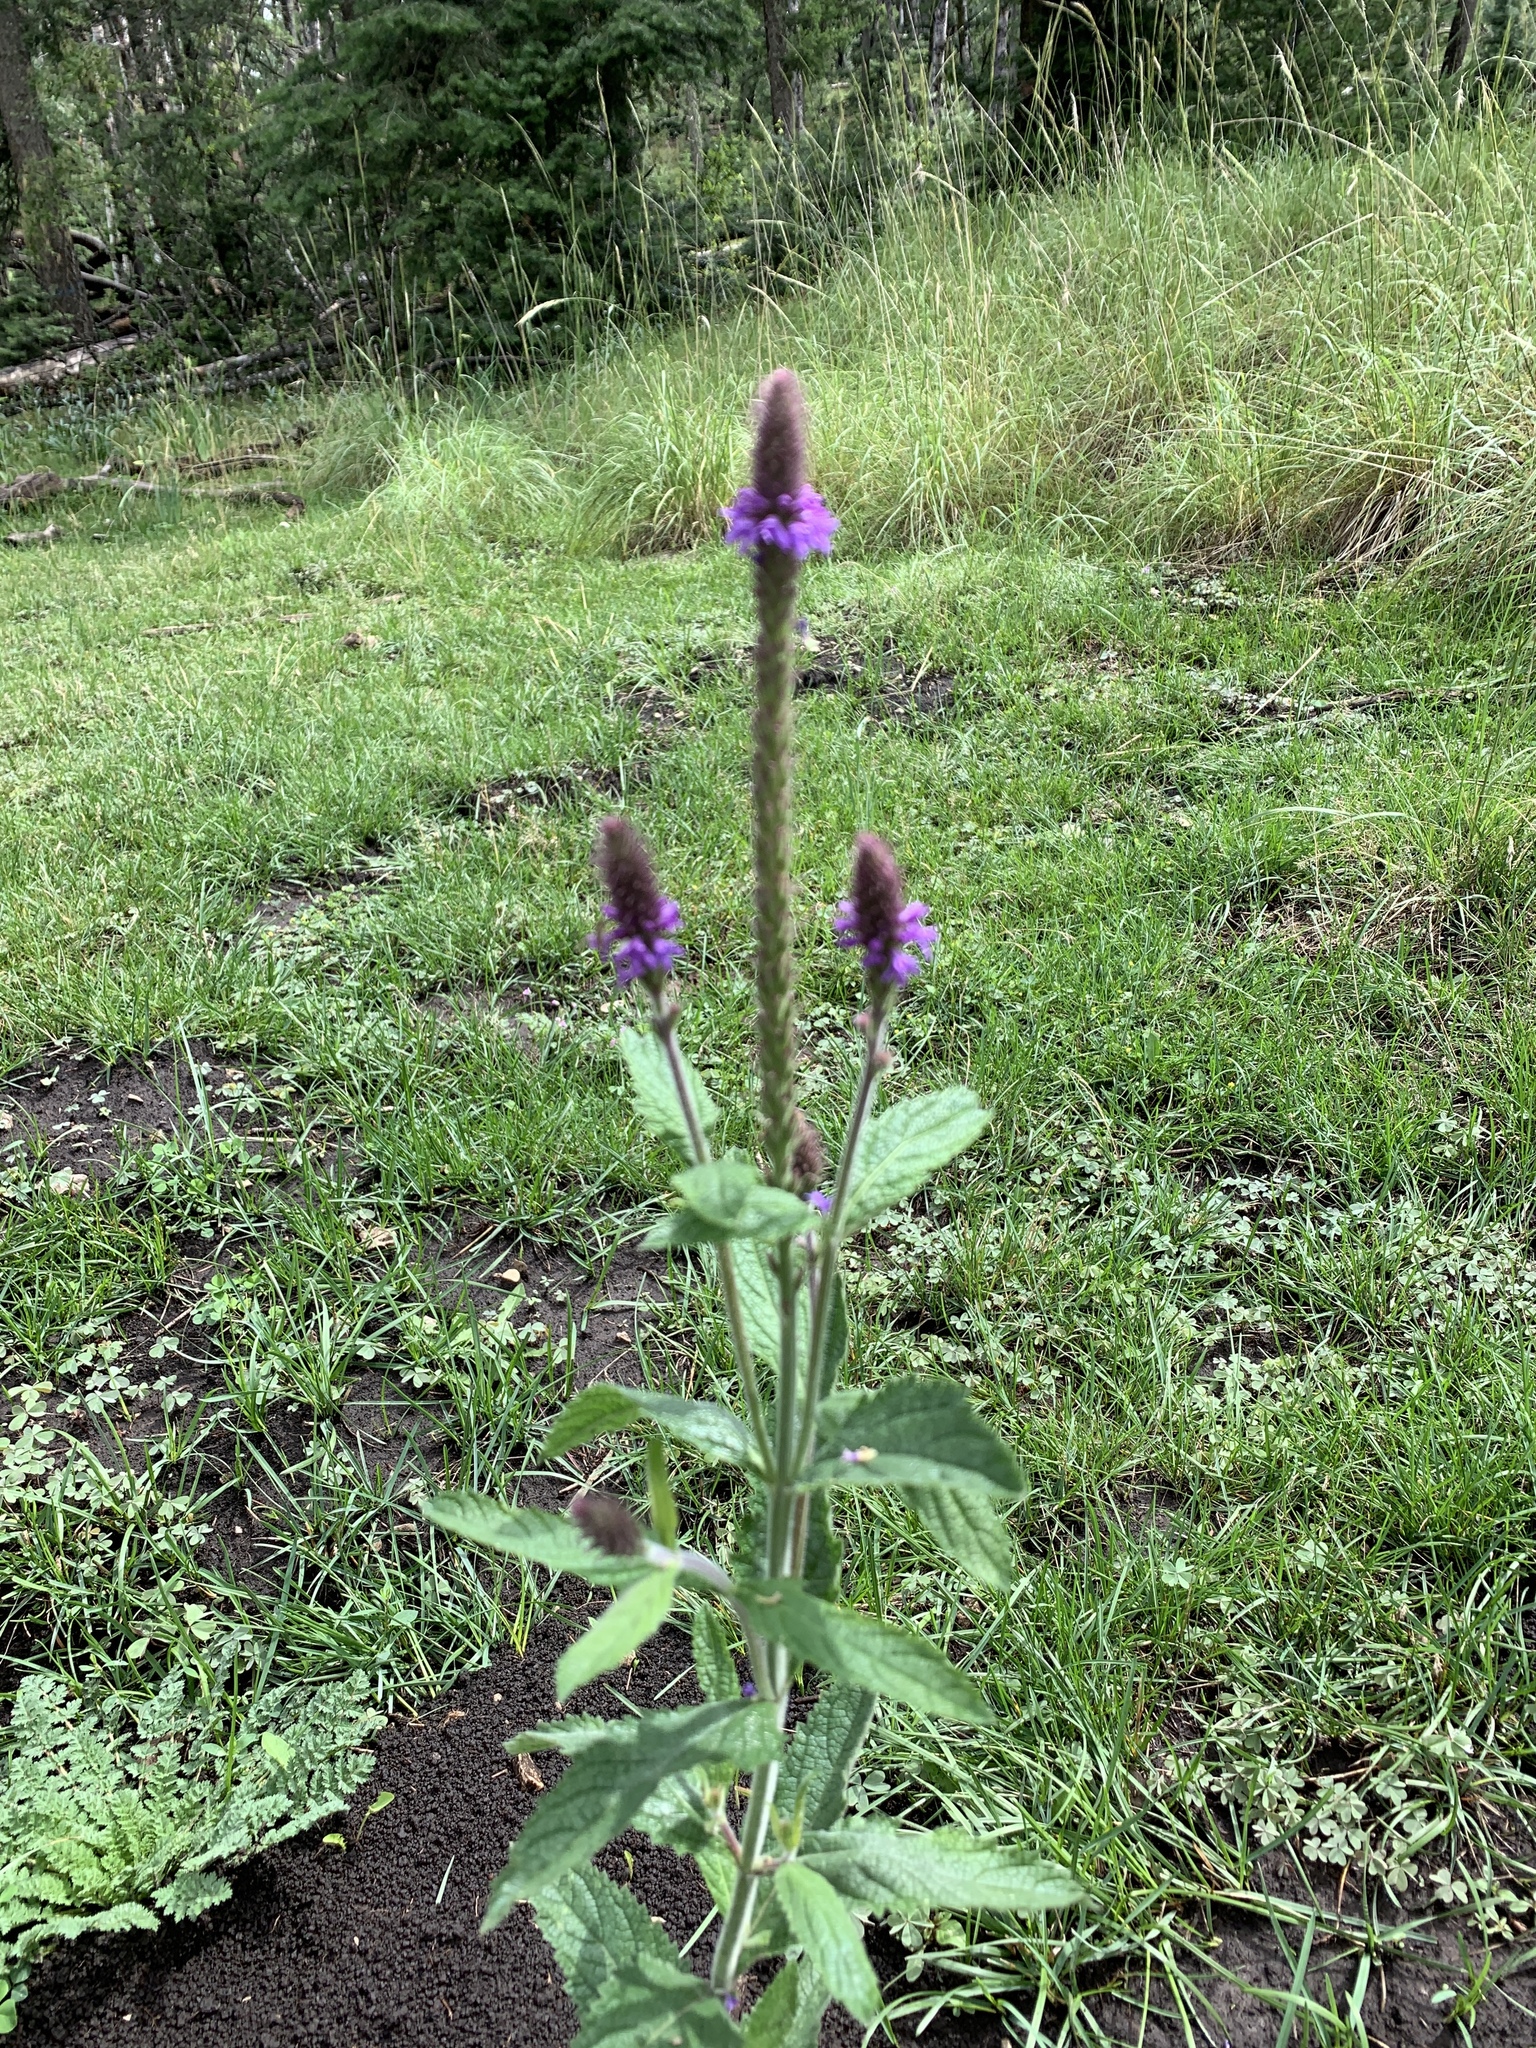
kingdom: Plantae
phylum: Tracheophyta
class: Magnoliopsida
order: Lamiales
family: Verbenaceae
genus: Verbena
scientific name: Verbena macdougalii
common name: New mexico vervain
